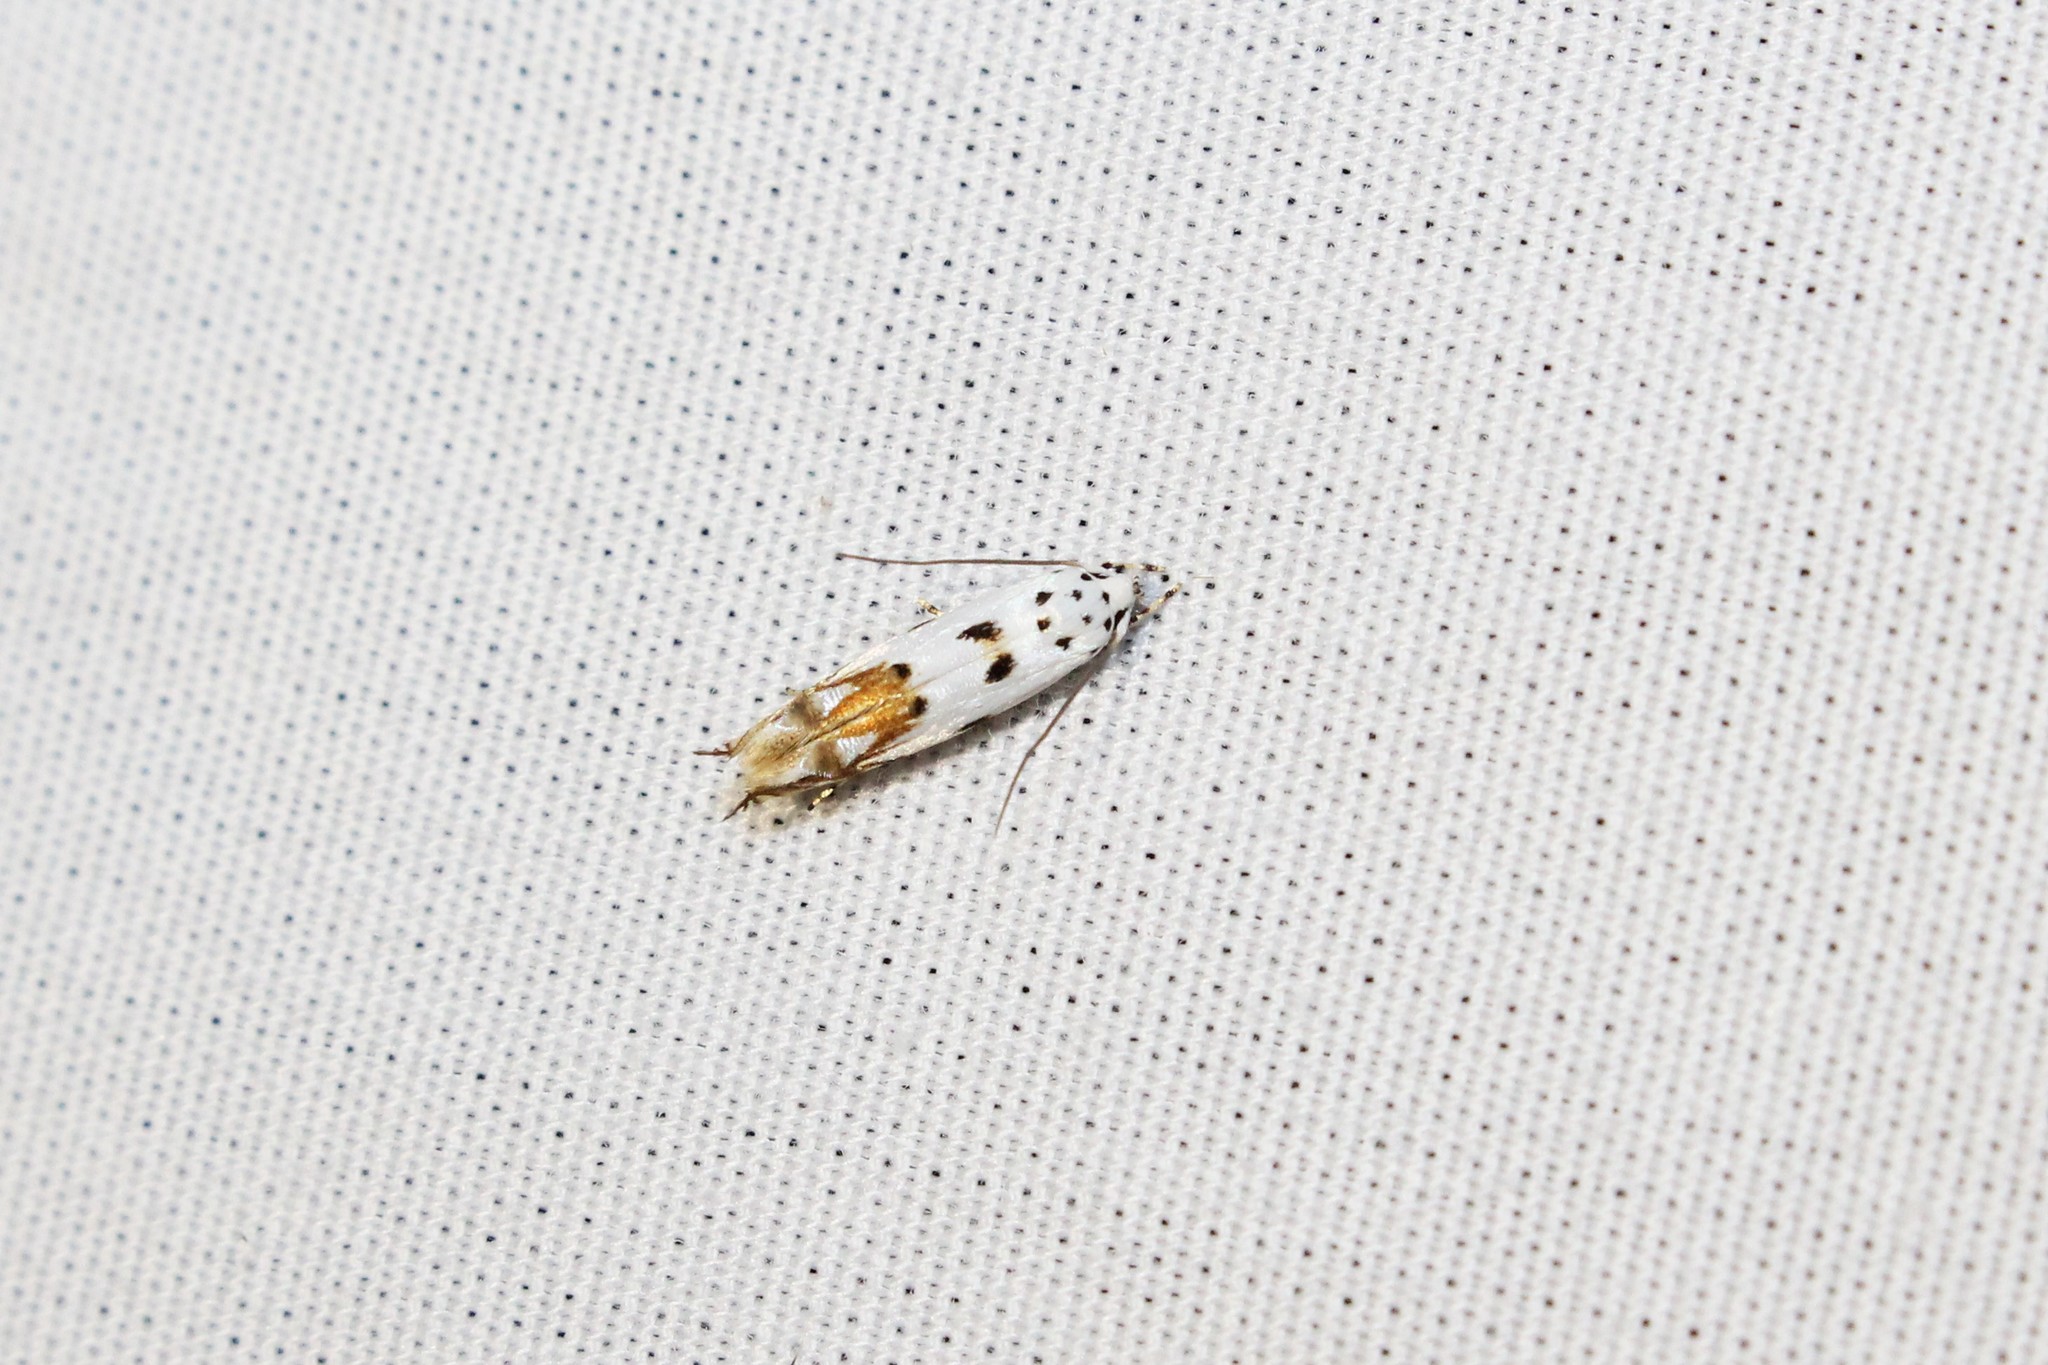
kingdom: Animalia
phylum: Arthropoda
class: Insecta
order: Lepidoptera
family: Momphidae
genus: Mompha
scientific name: Mompha eloisella
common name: Red-streaked mompha moth
